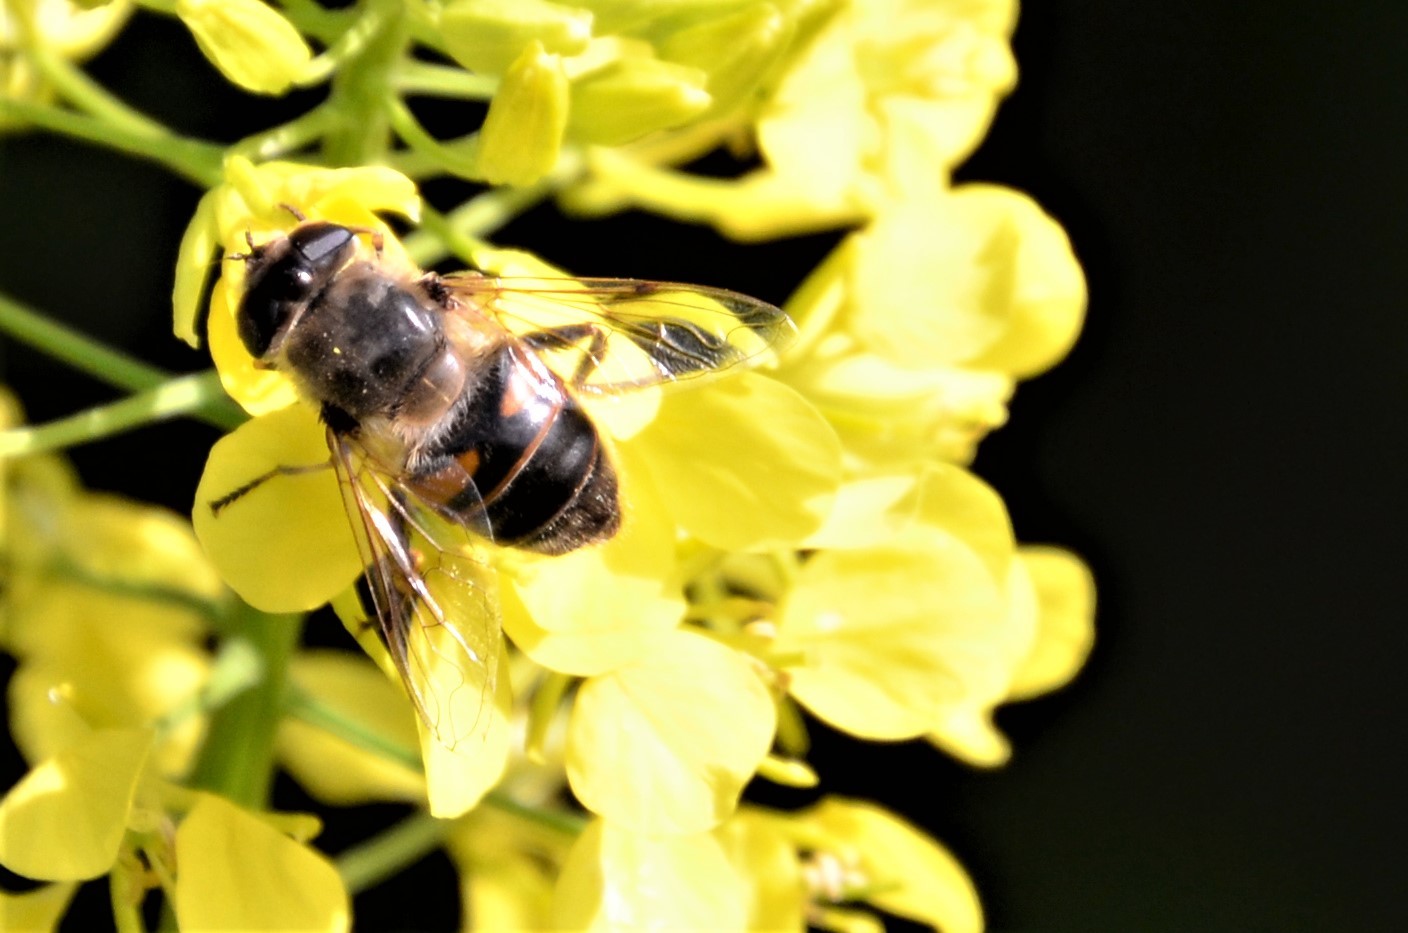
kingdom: Animalia
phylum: Arthropoda
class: Insecta
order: Diptera
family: Syrphidae
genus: Eristalis
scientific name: Eristalis tenax
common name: Drone fly
